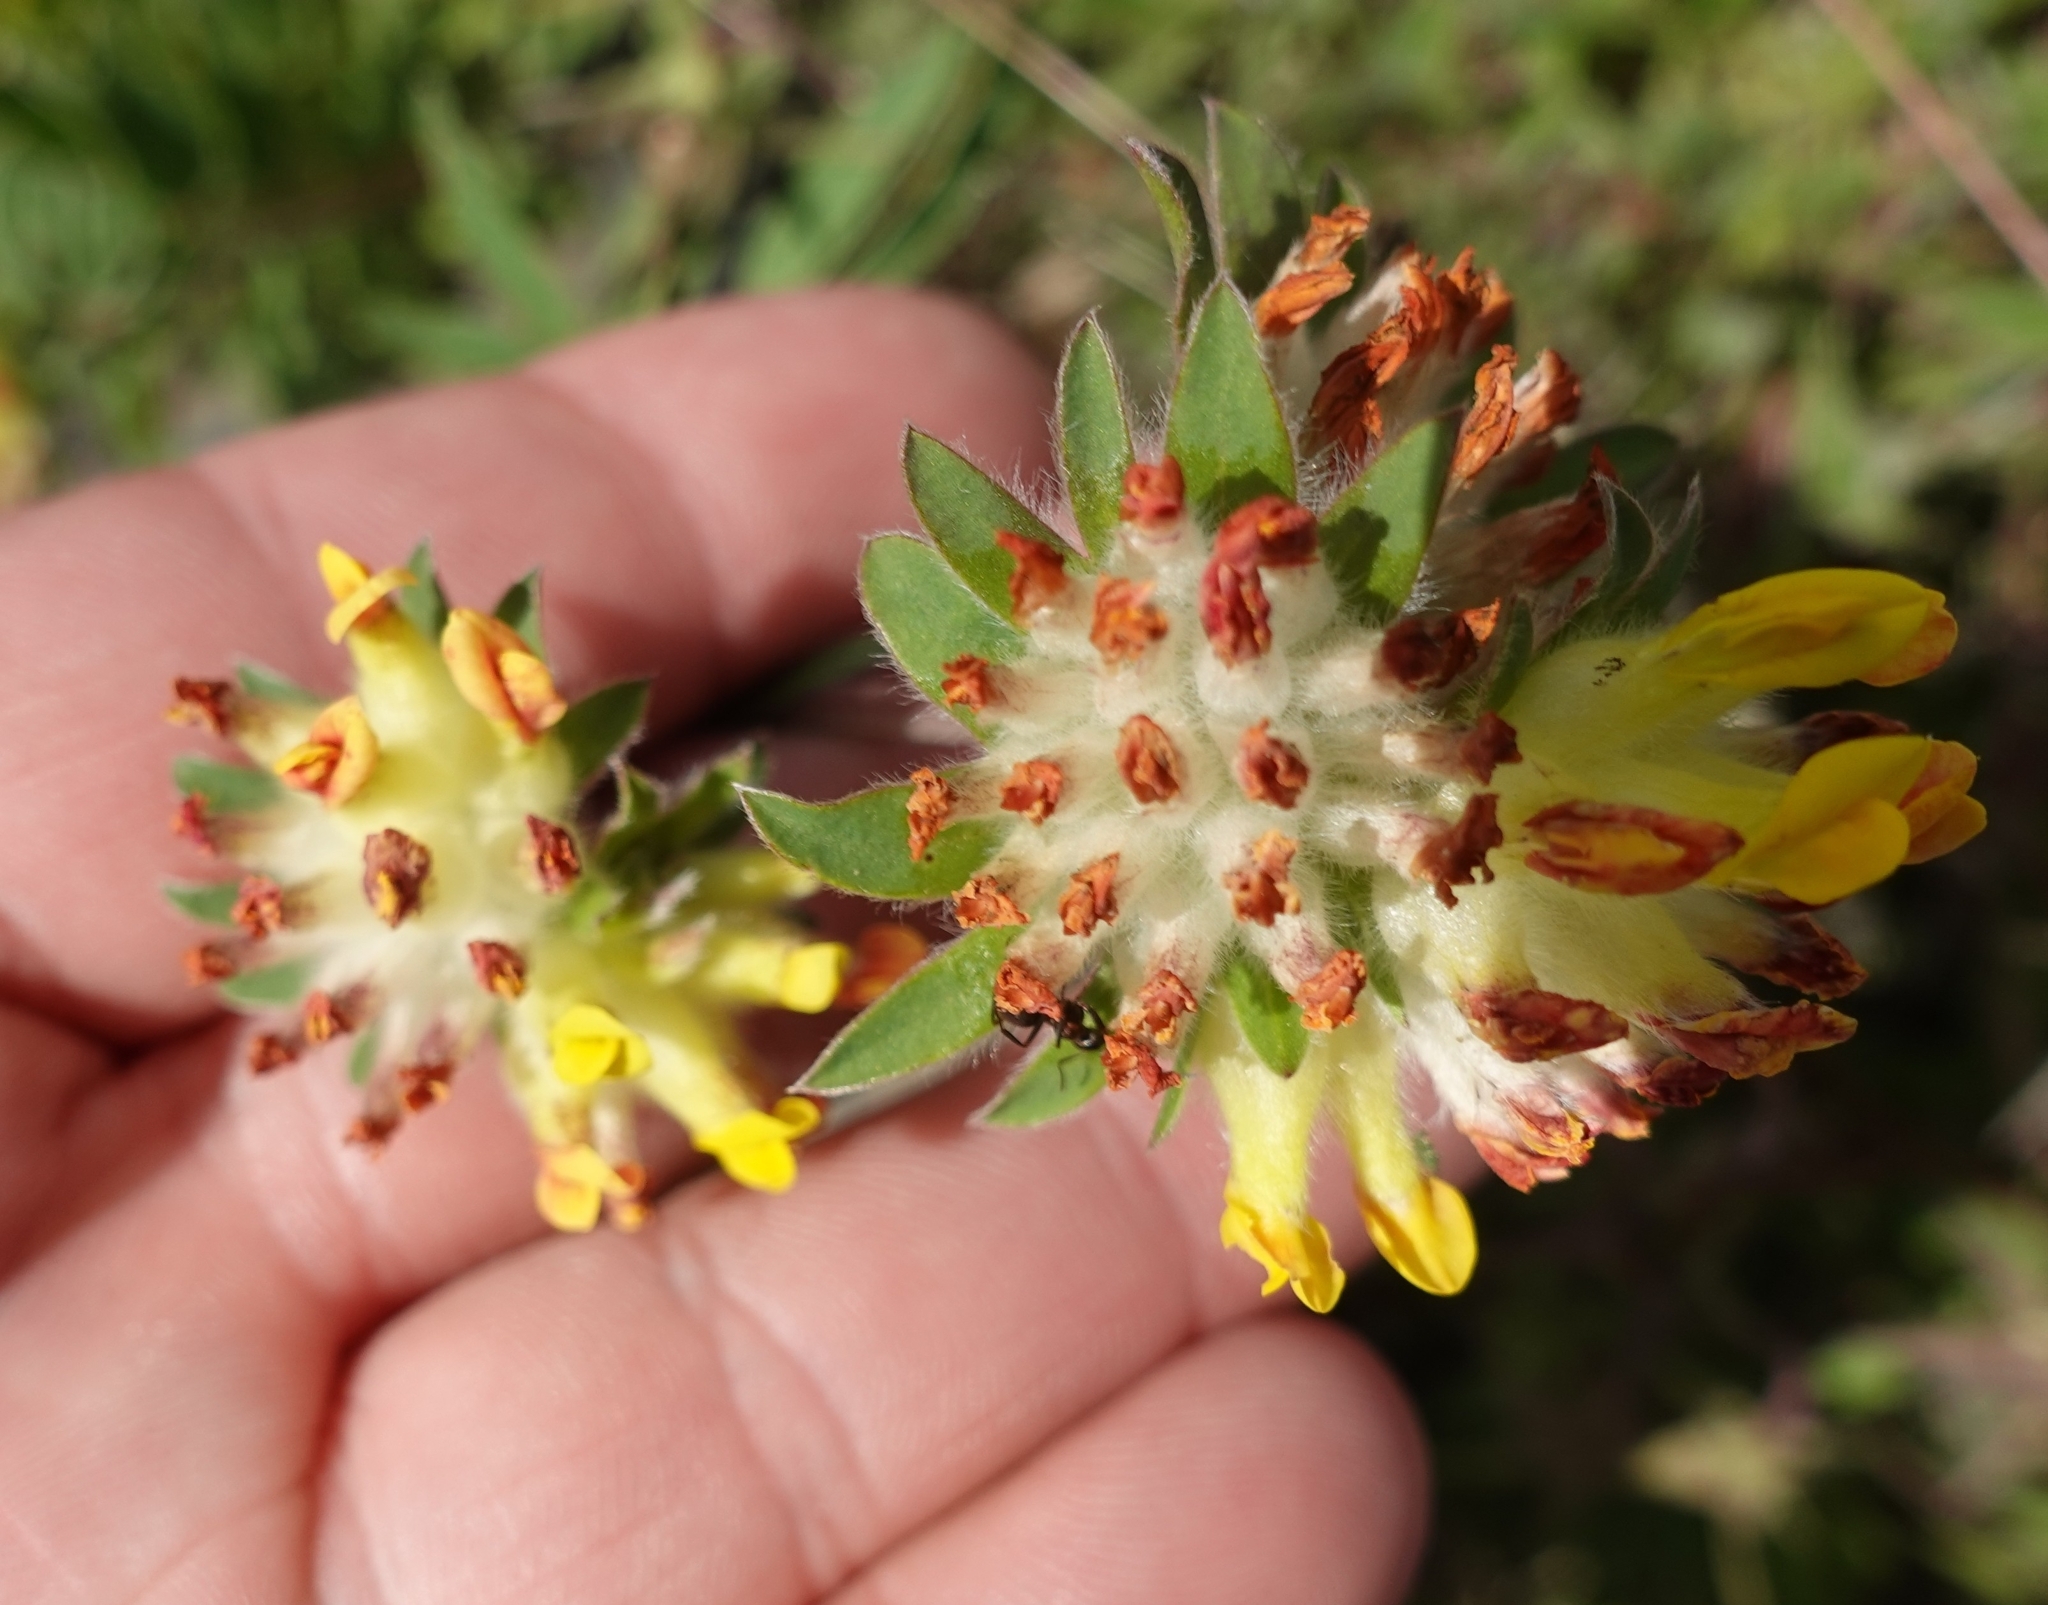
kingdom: Plantae
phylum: Tracheophyta
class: Magnoliopsida
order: Fabales
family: Fabaceae
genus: Anthyllis
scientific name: Anthyllis vulneraria
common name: Kidney vetch
